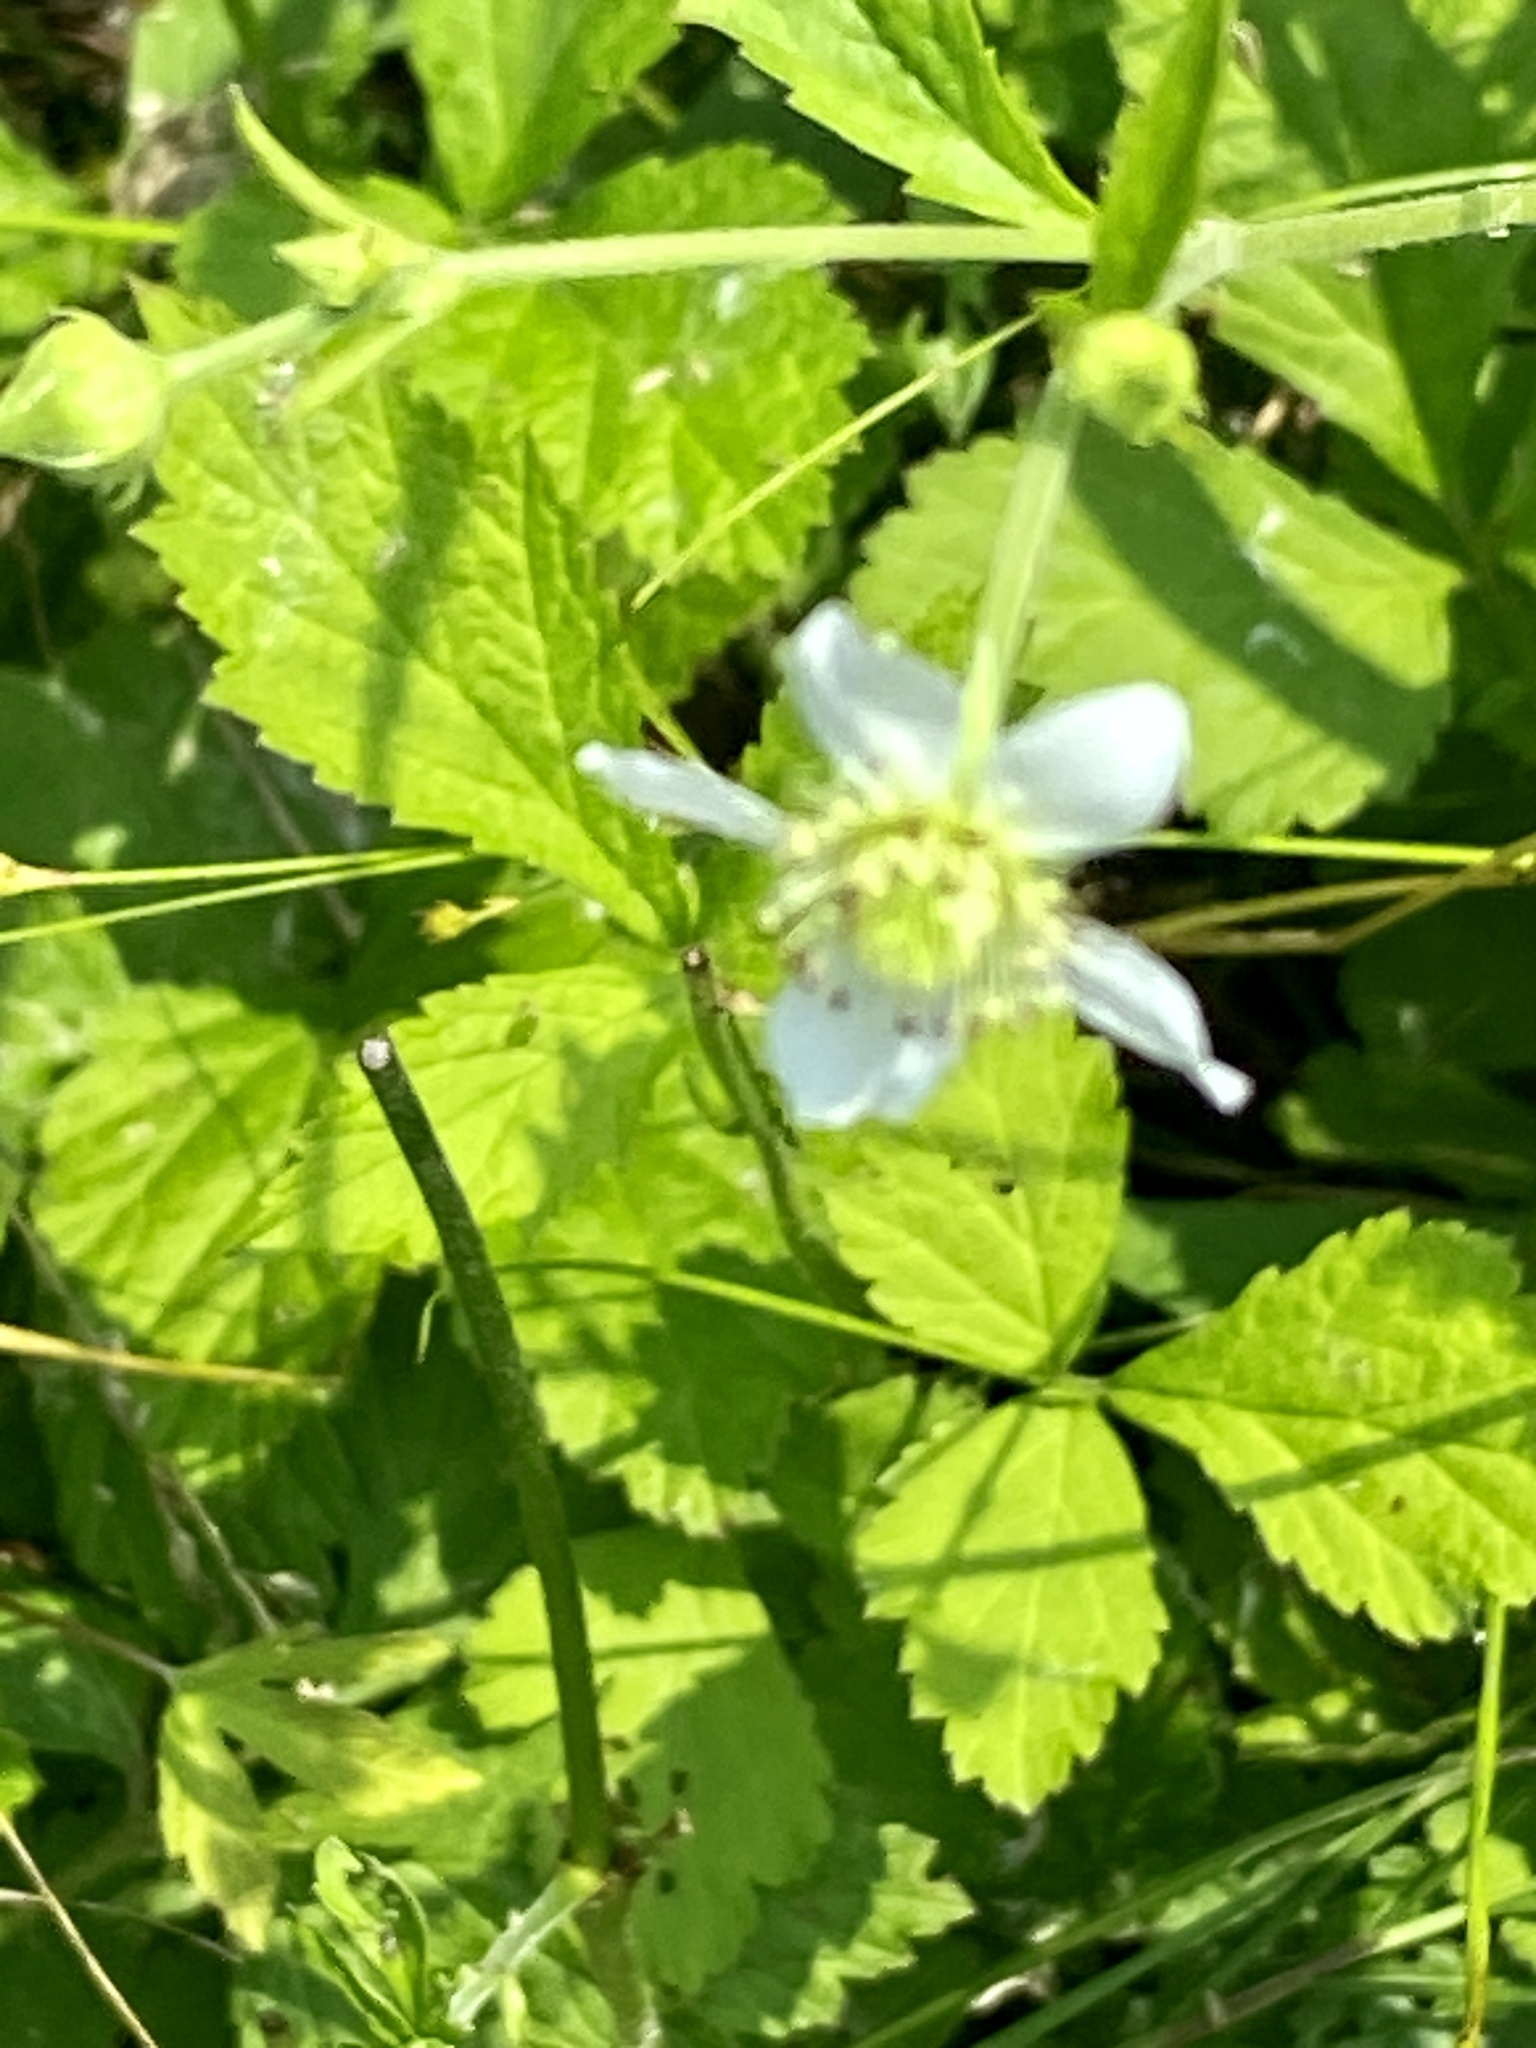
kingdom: Plantae
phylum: Tracheophyta
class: Magnoliopsida
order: Rosales
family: Rosaceae
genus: Geum
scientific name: Geum canadense
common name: White avens
